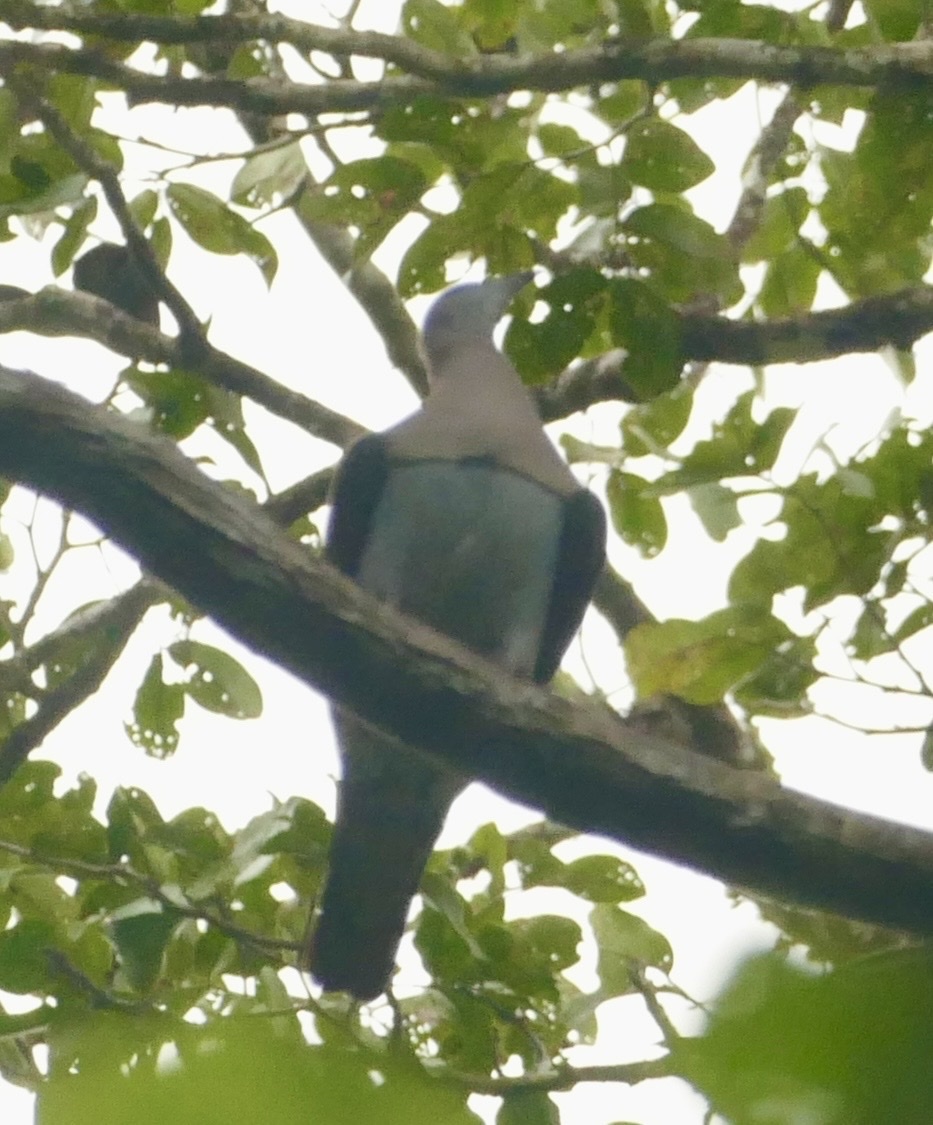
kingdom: Animalia
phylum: Chordata
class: Aves
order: Columbiformes
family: Columbidae
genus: Ducula
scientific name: Ducula zoeae
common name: Zoe's imperial pigeon
